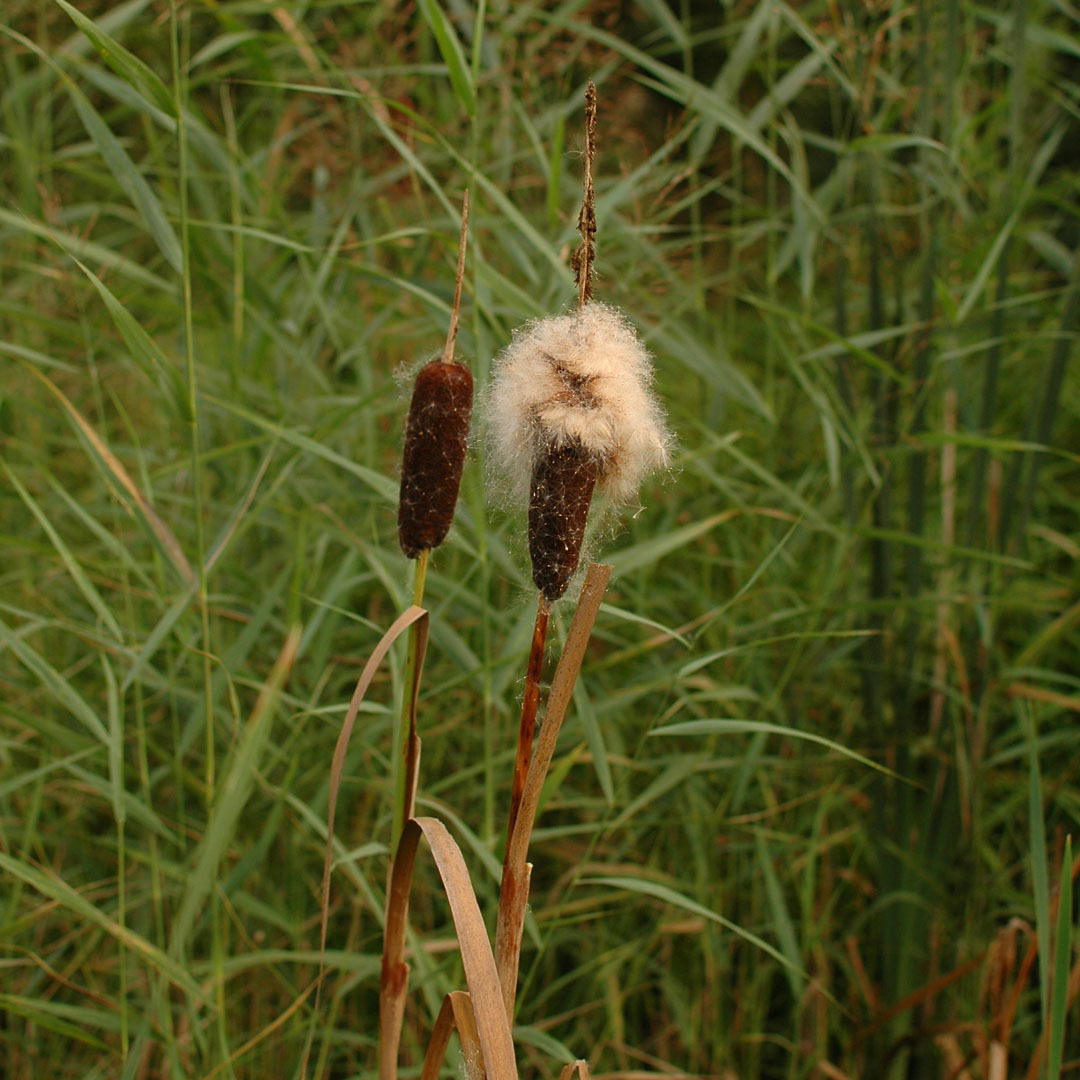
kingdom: Plantae
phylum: Tracheophyta
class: Liliopsida
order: Poales
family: Typhaceae
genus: Typha
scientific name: Typha latifolia
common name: Broadleaf cattail
